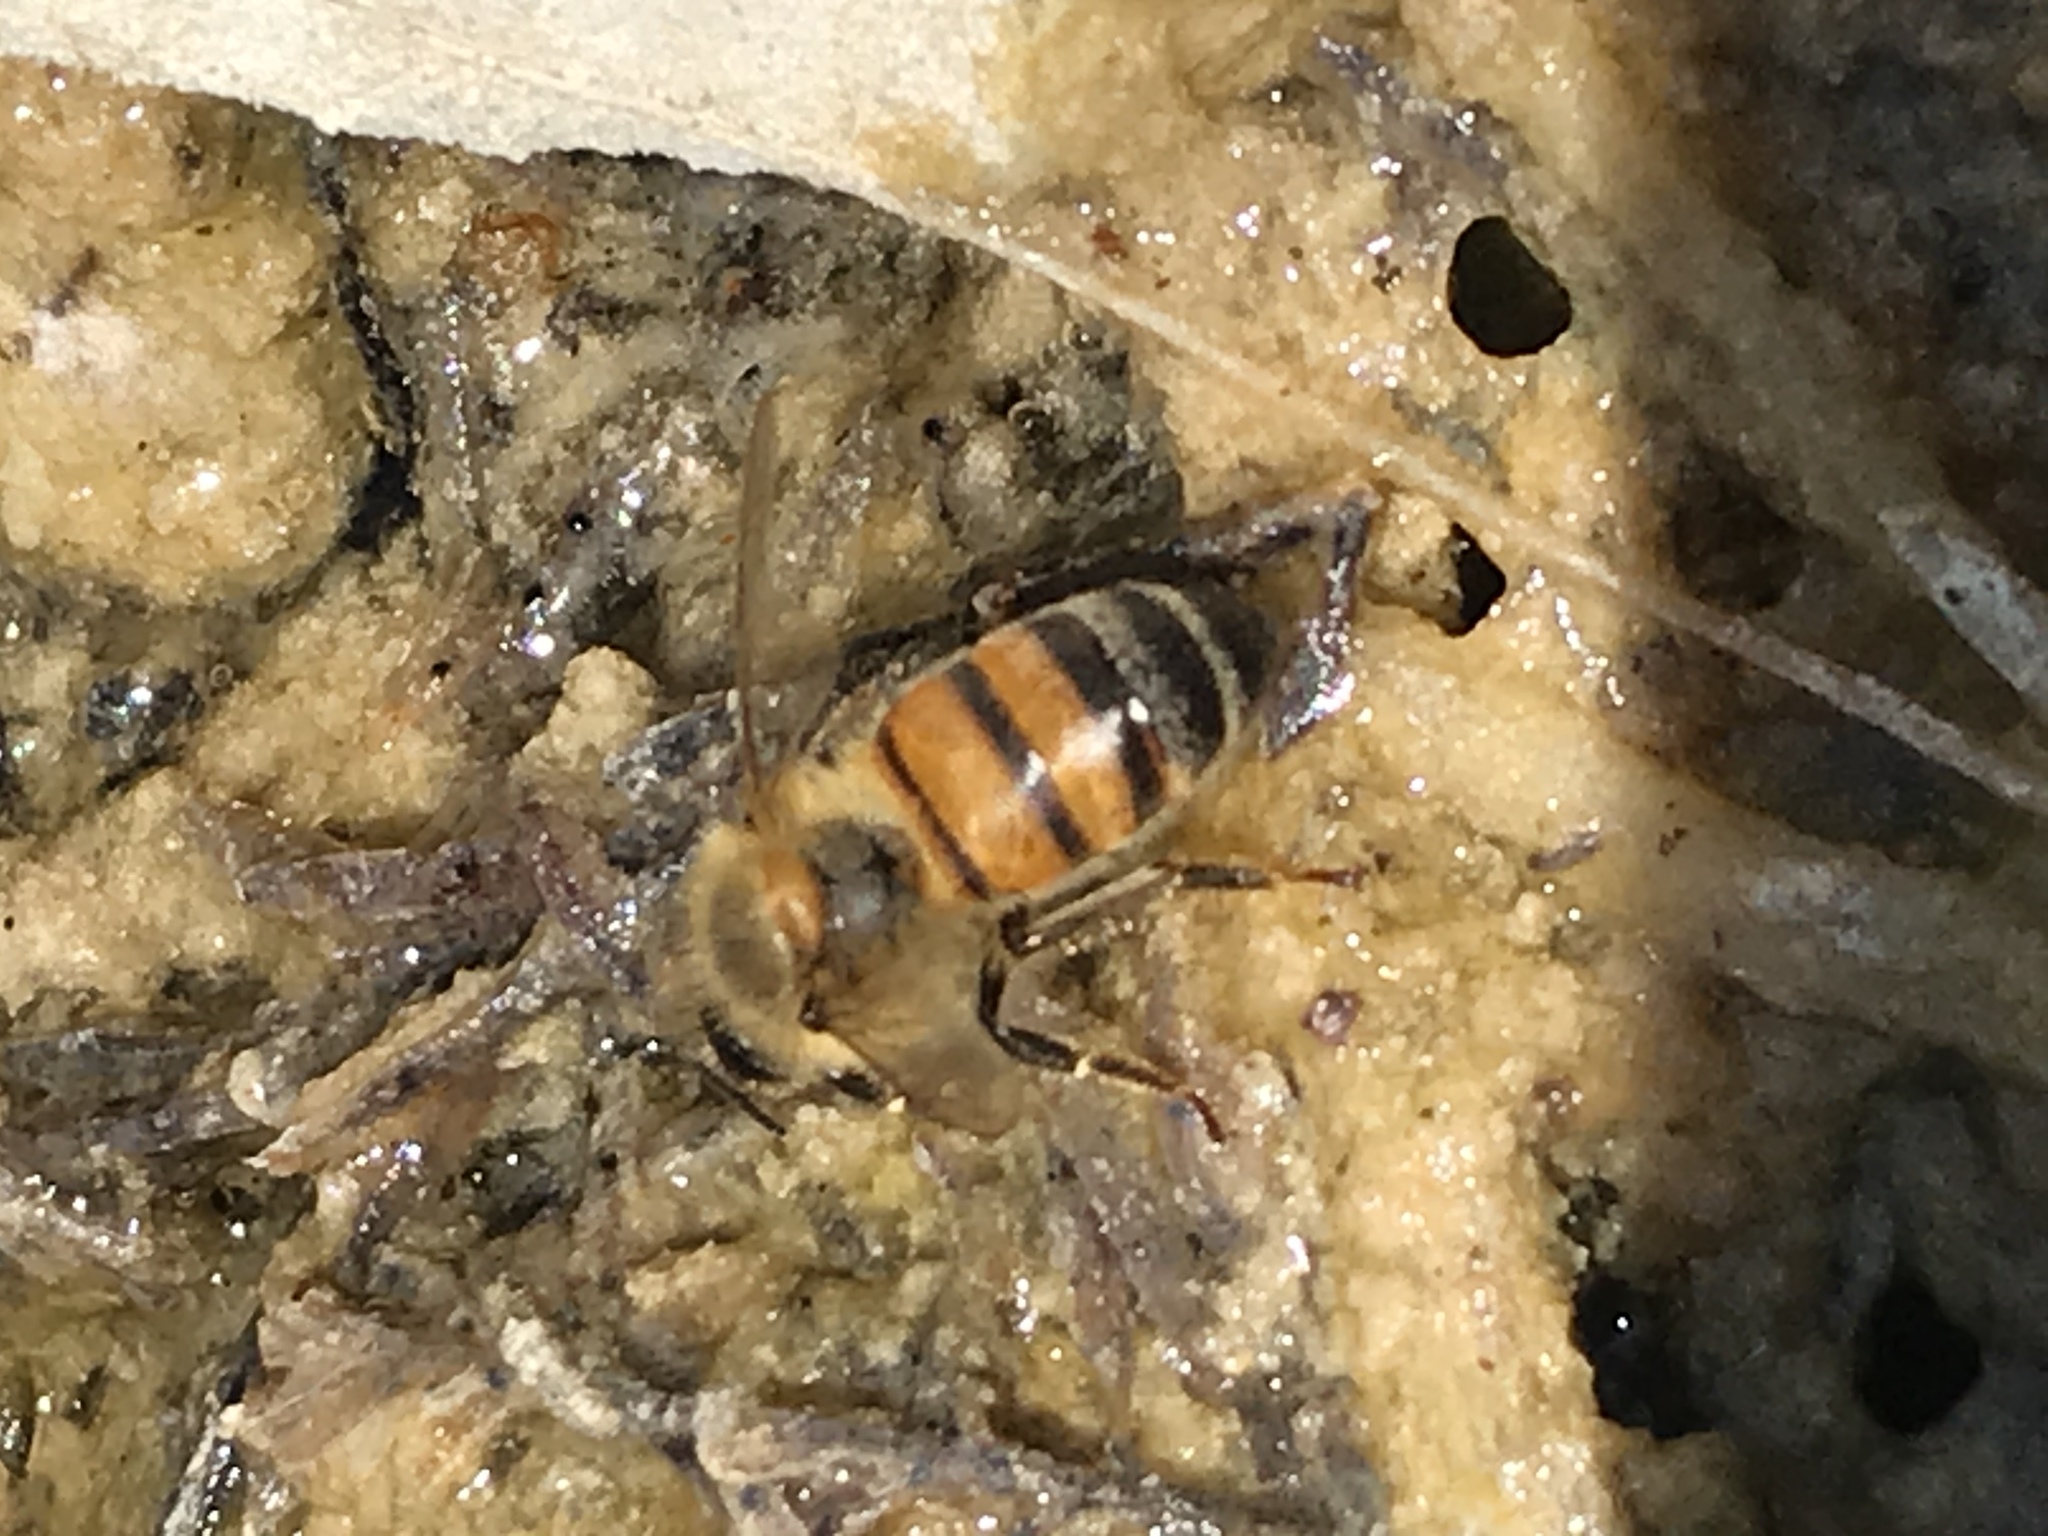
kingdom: Animalia
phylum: Arthropoda
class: Insecta
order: Hymenoptera
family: Apidae
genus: Apis
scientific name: Apis mellifera
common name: Honey bee
